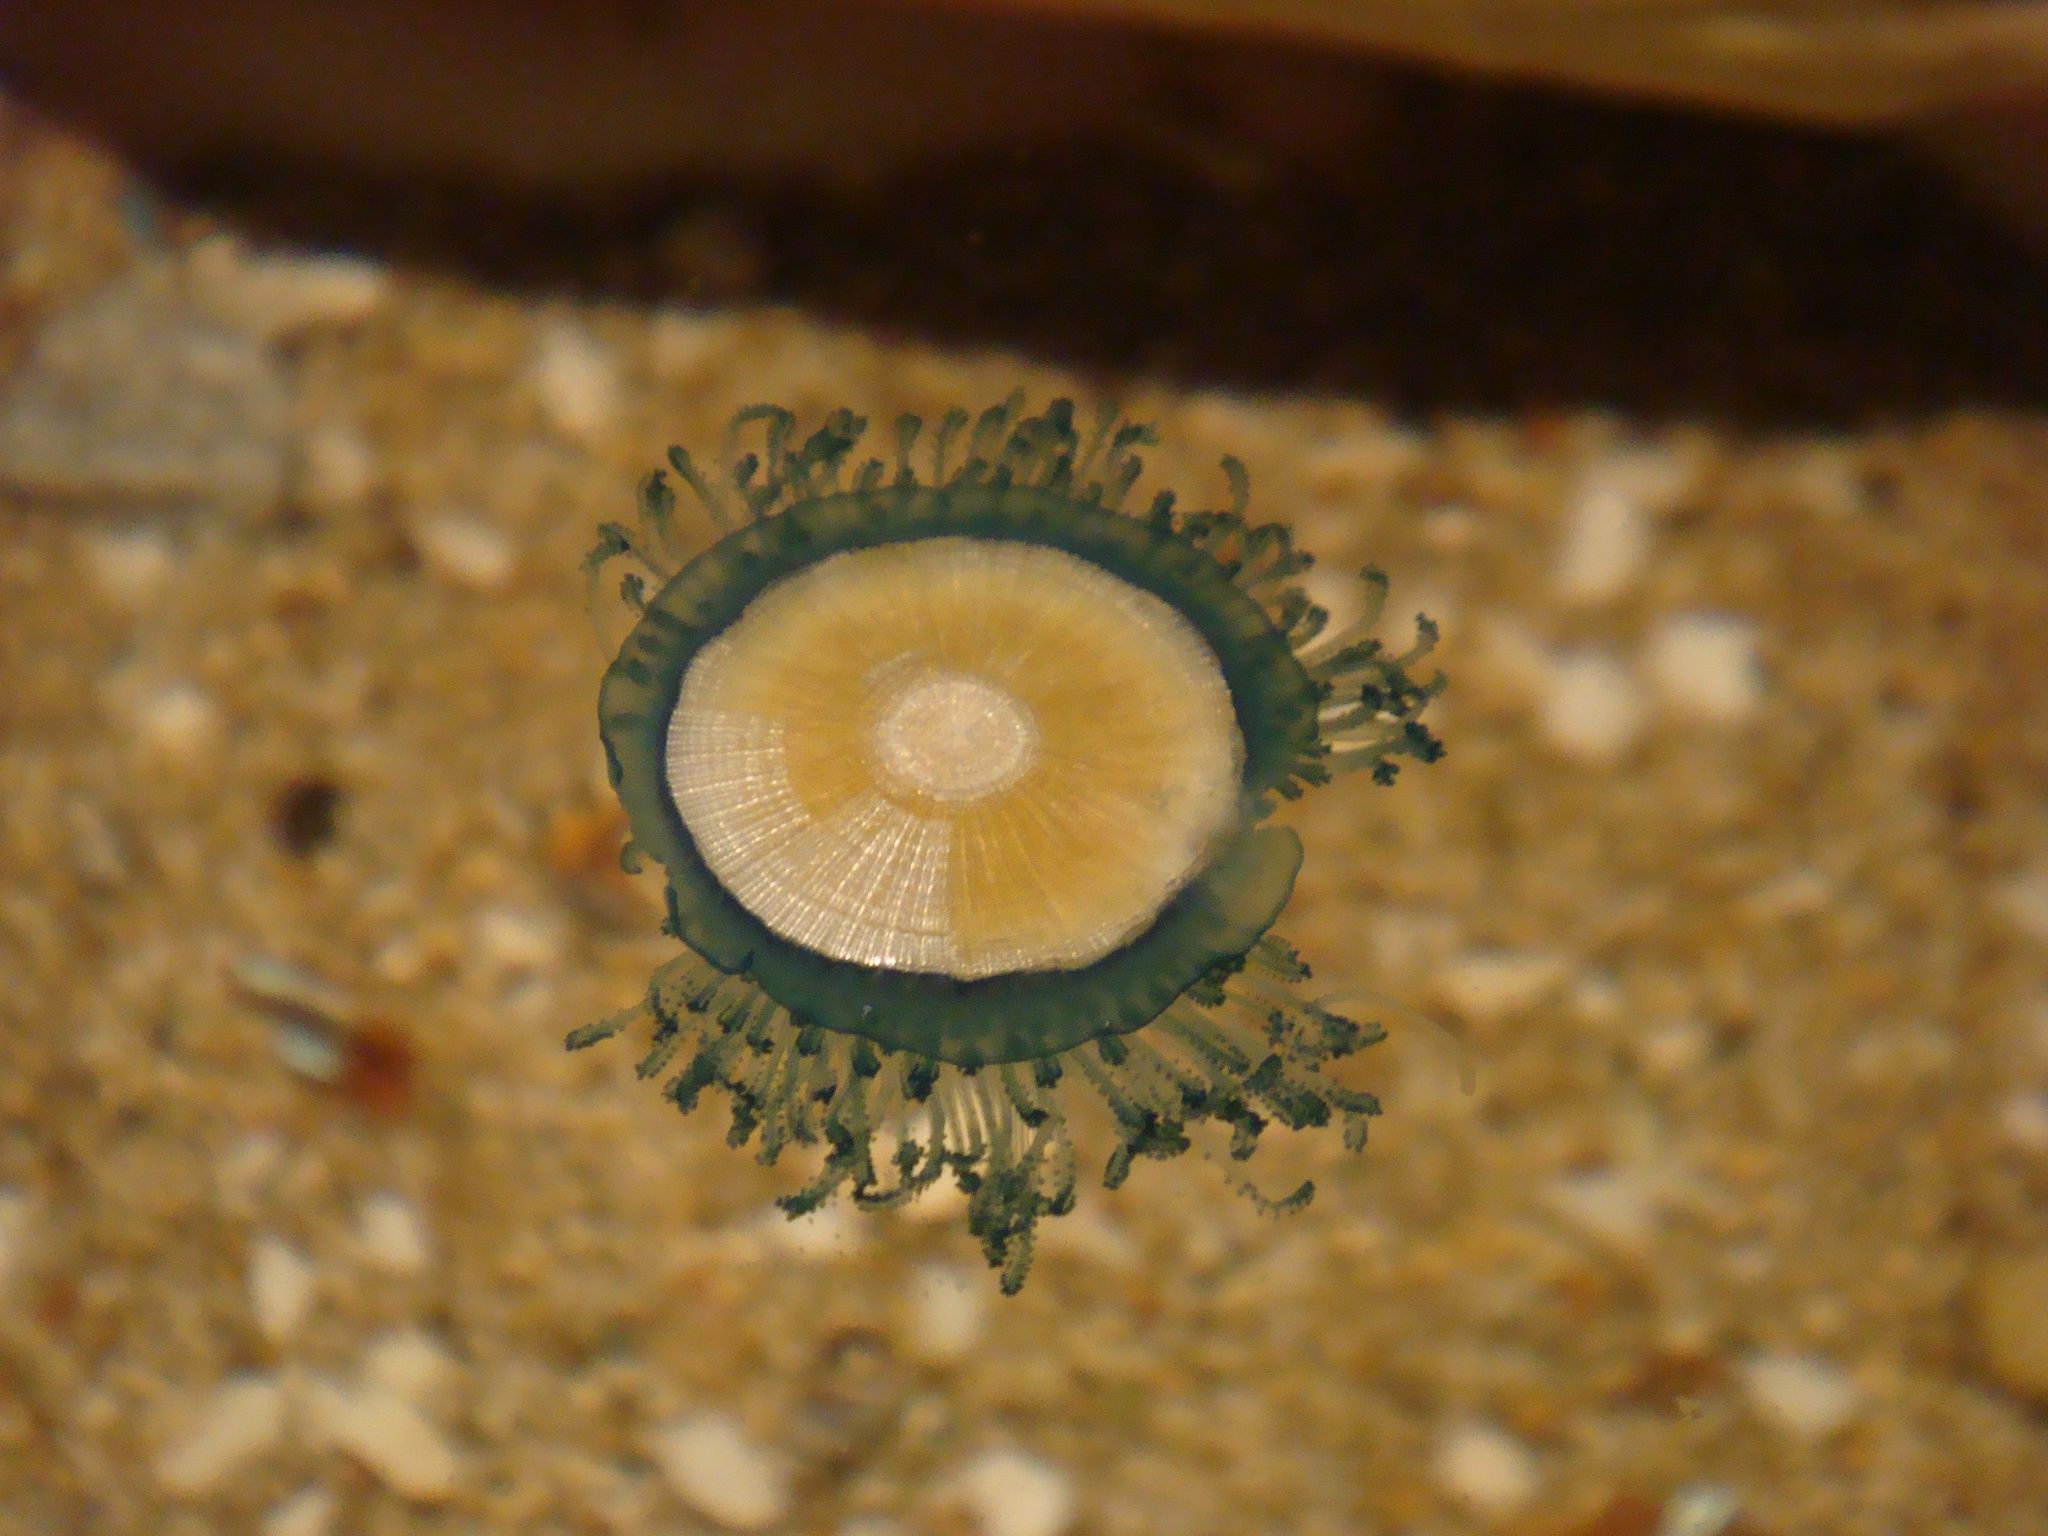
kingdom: Animalia
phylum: Cnidaria
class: Hydrozoa
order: Anthoathecata
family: Porpitidae
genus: Porpita
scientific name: Porpita porpita
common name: Blue button
